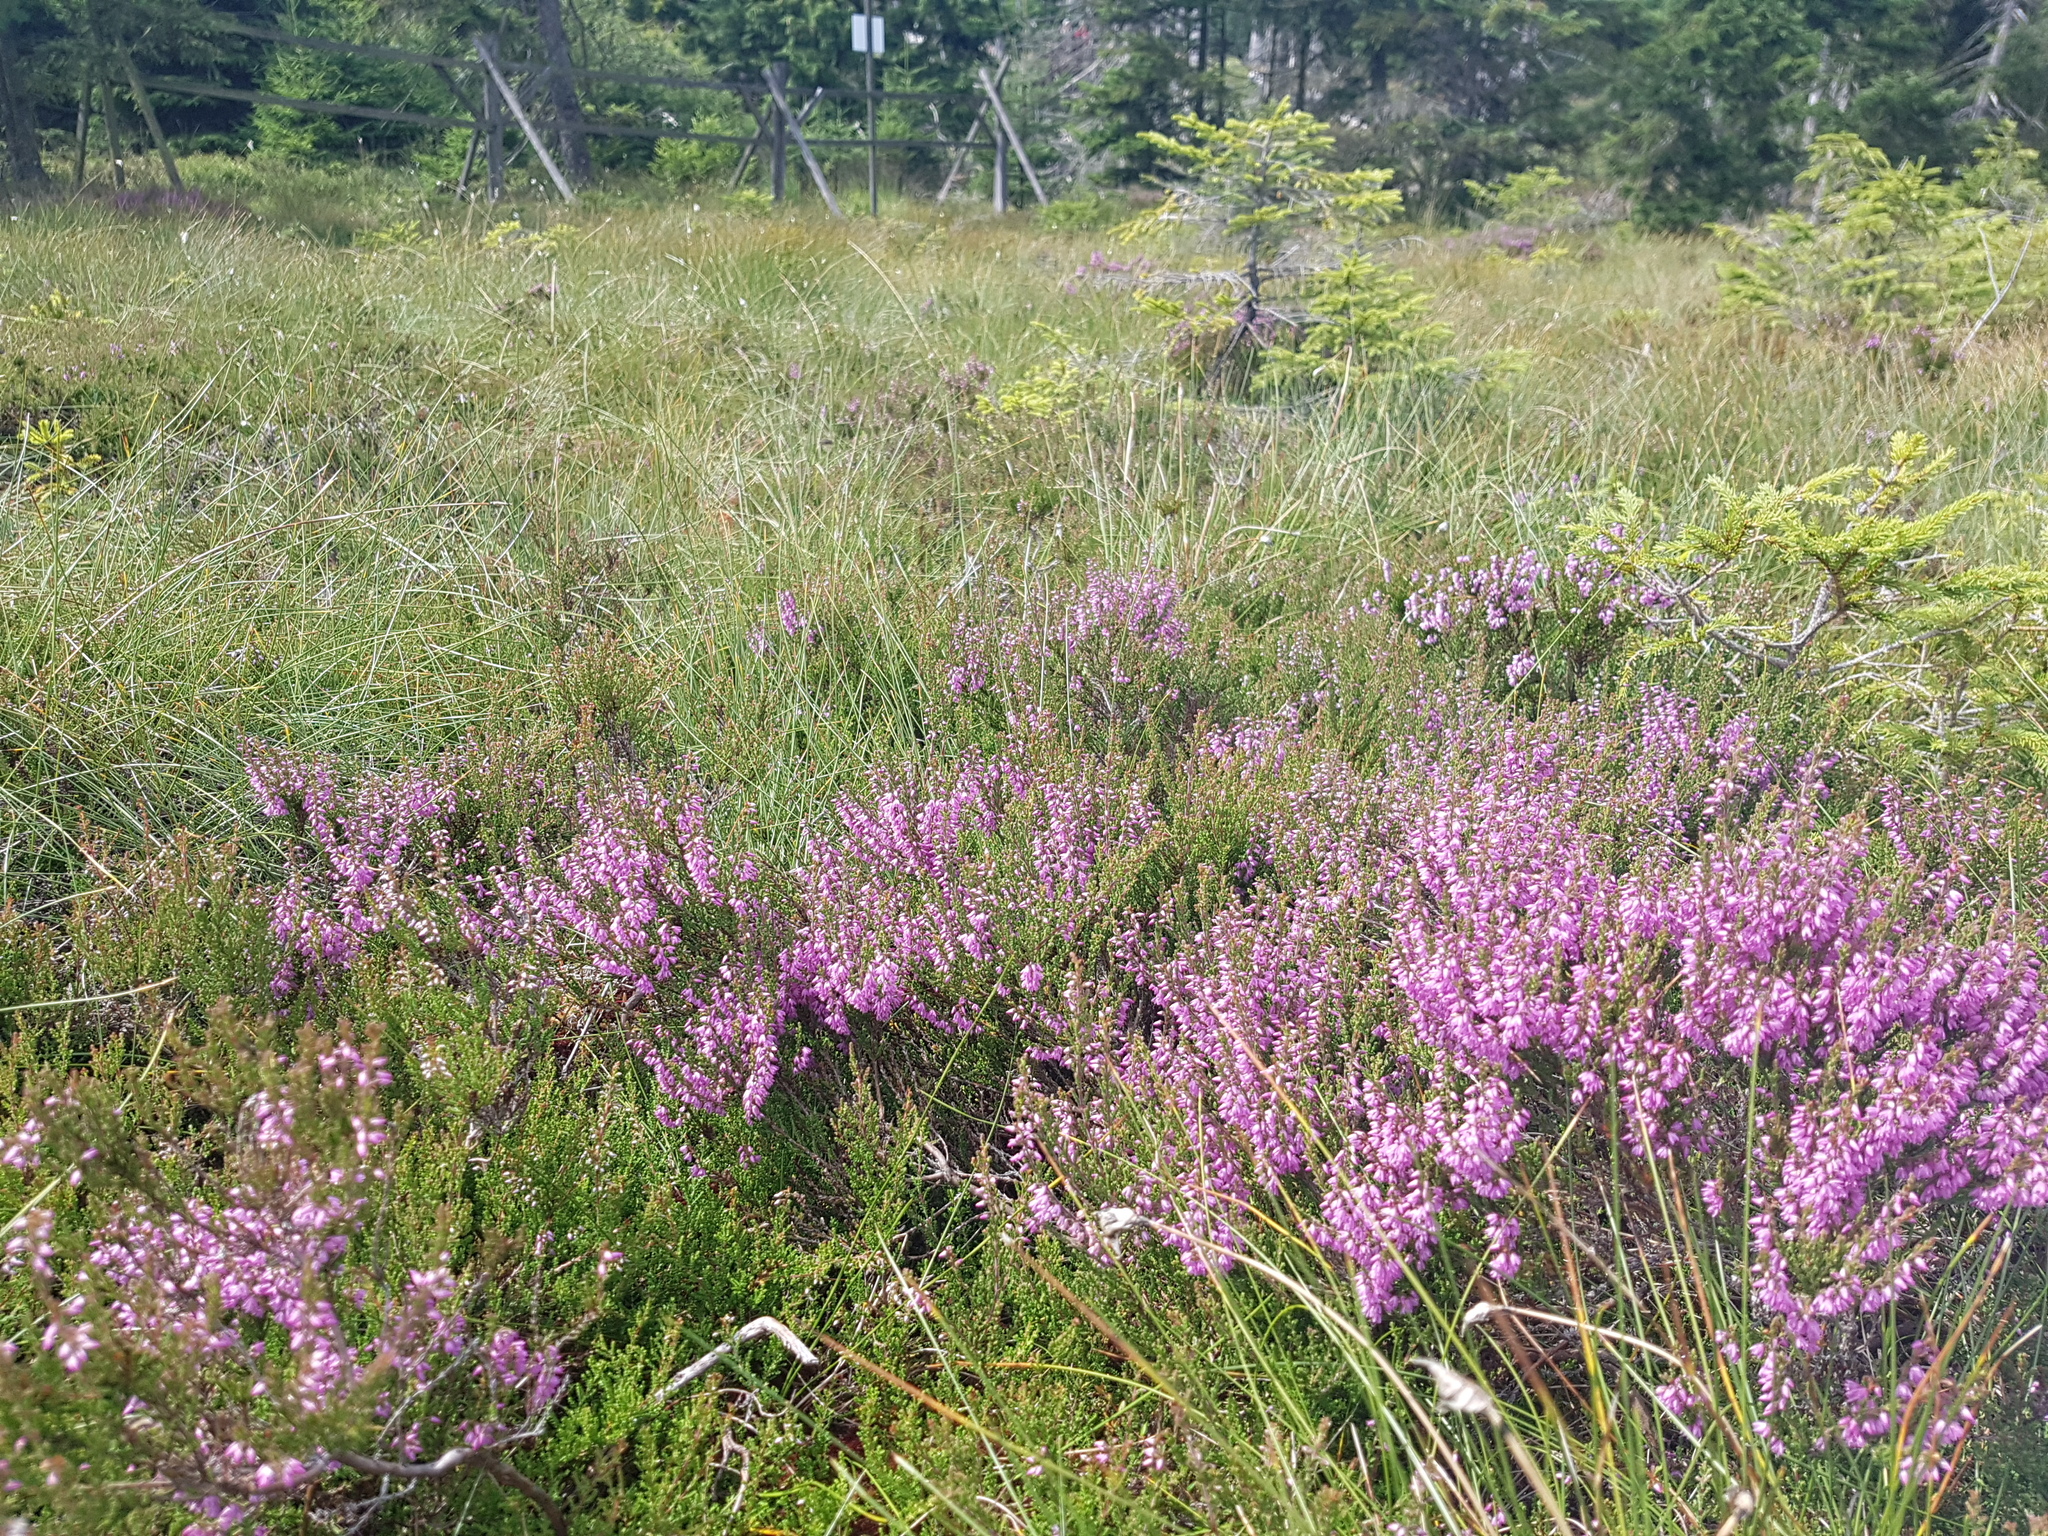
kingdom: Plantae
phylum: Tracheophyta
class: Magnoliopsida
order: Ericales
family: Ericaceae
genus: Calluna
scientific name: Calluna vulgaris
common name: Heather
